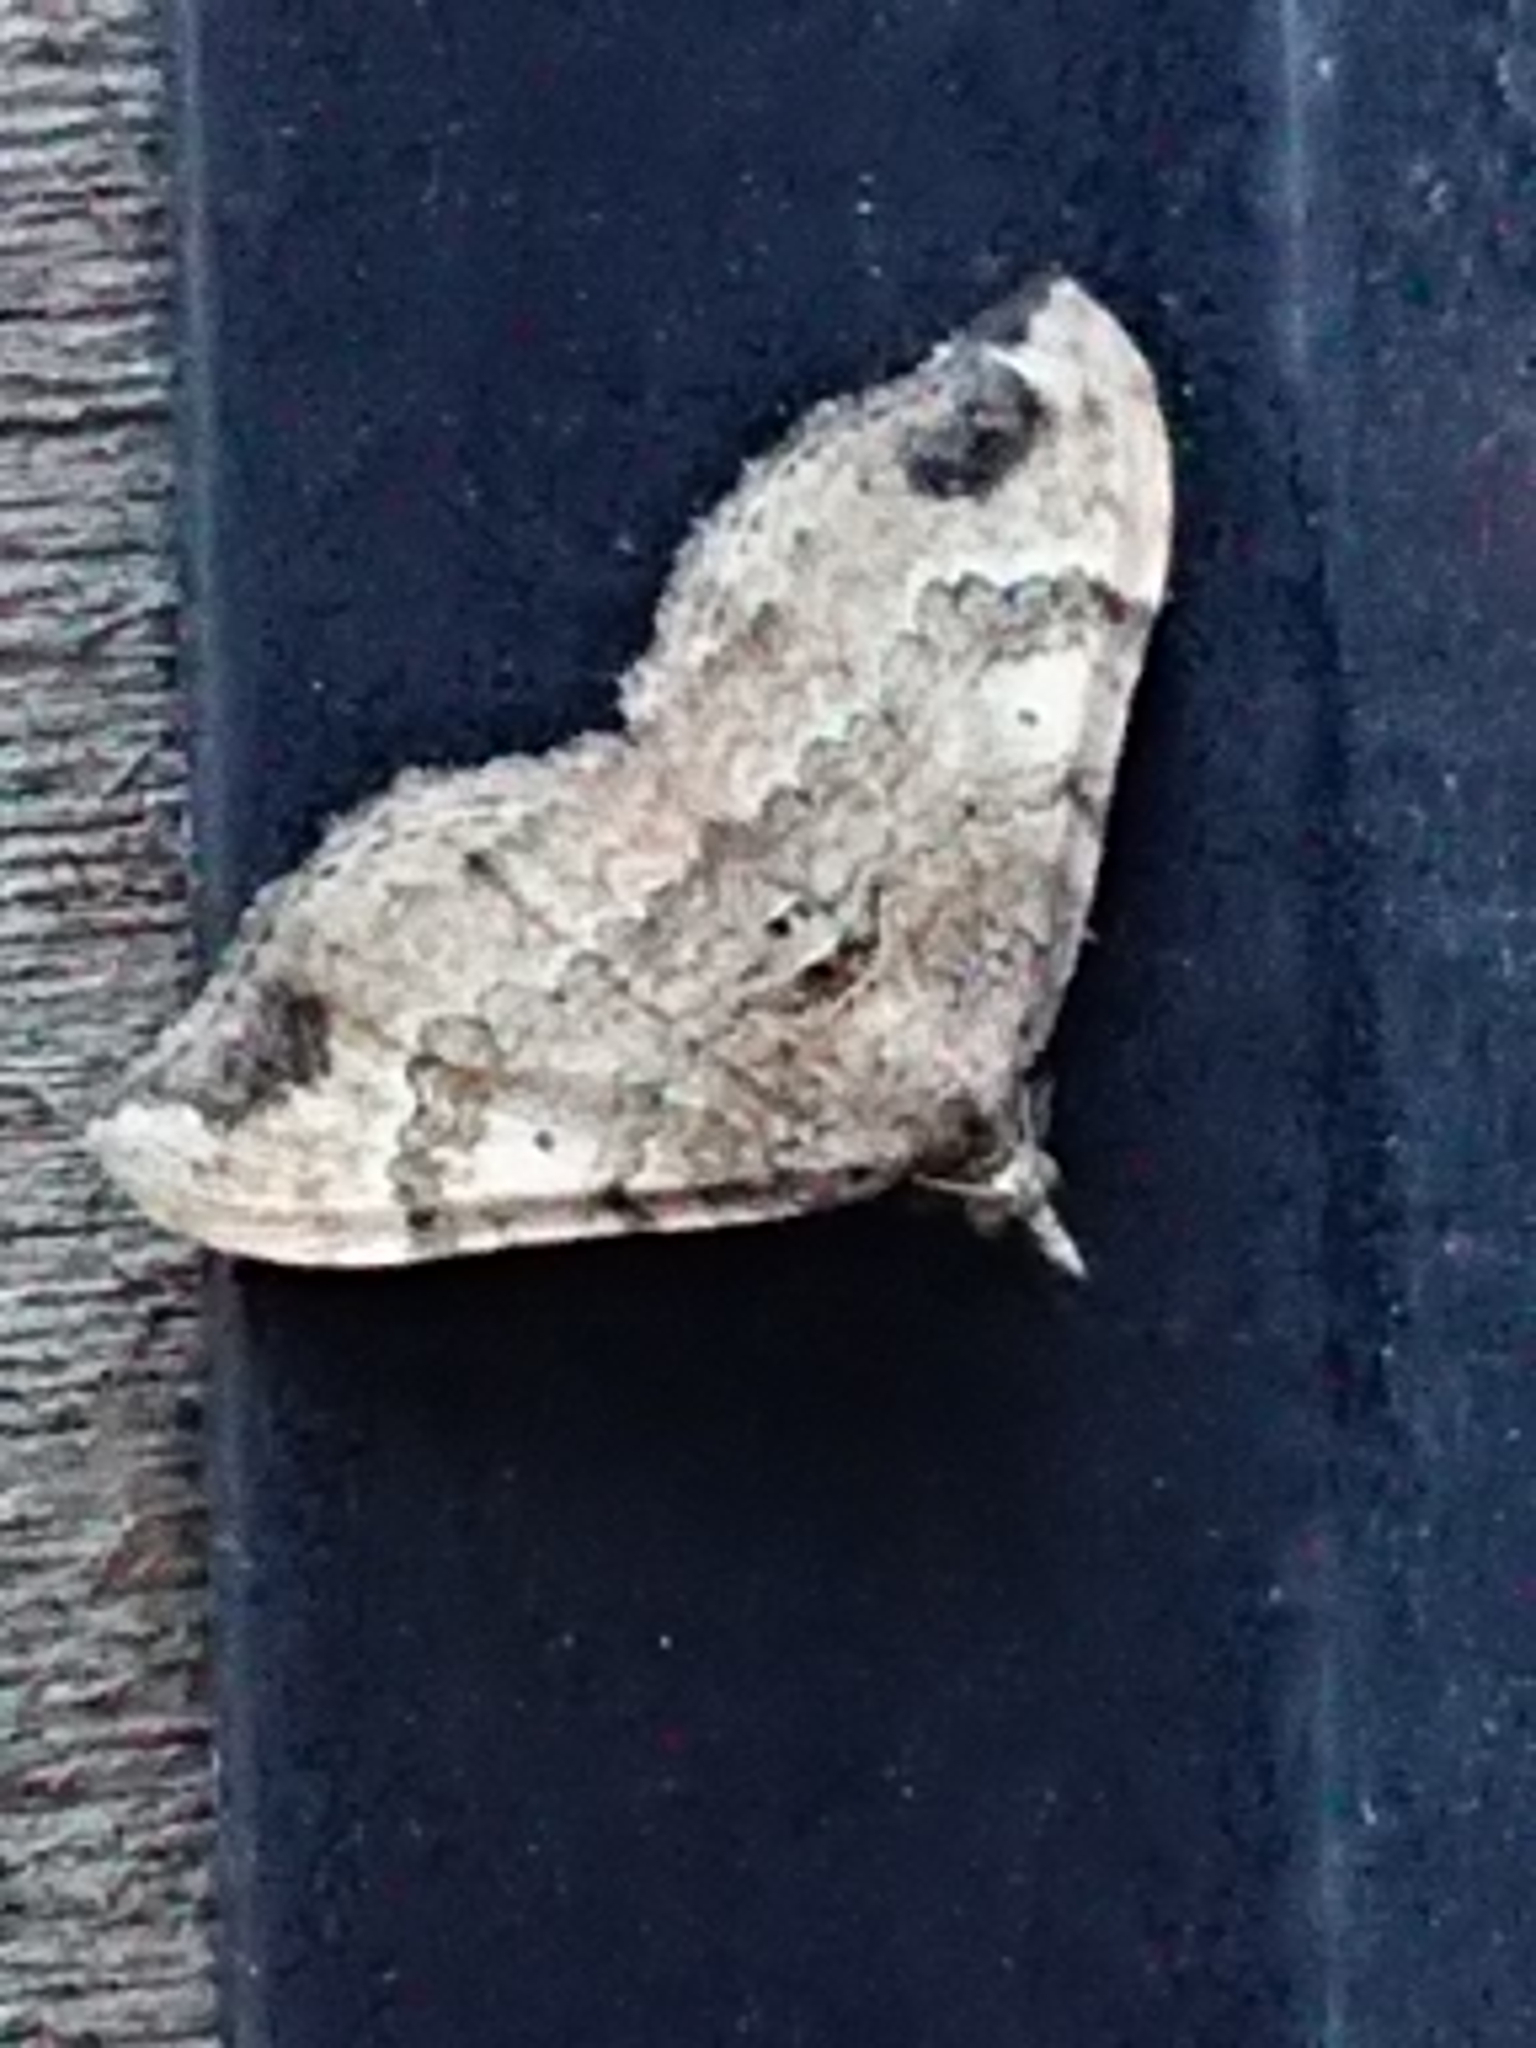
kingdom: Animalia
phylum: Arthropoda
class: Insecta
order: Lepidoptera
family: Geometridae
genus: Homodotis
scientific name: Homodotis megaspilata
